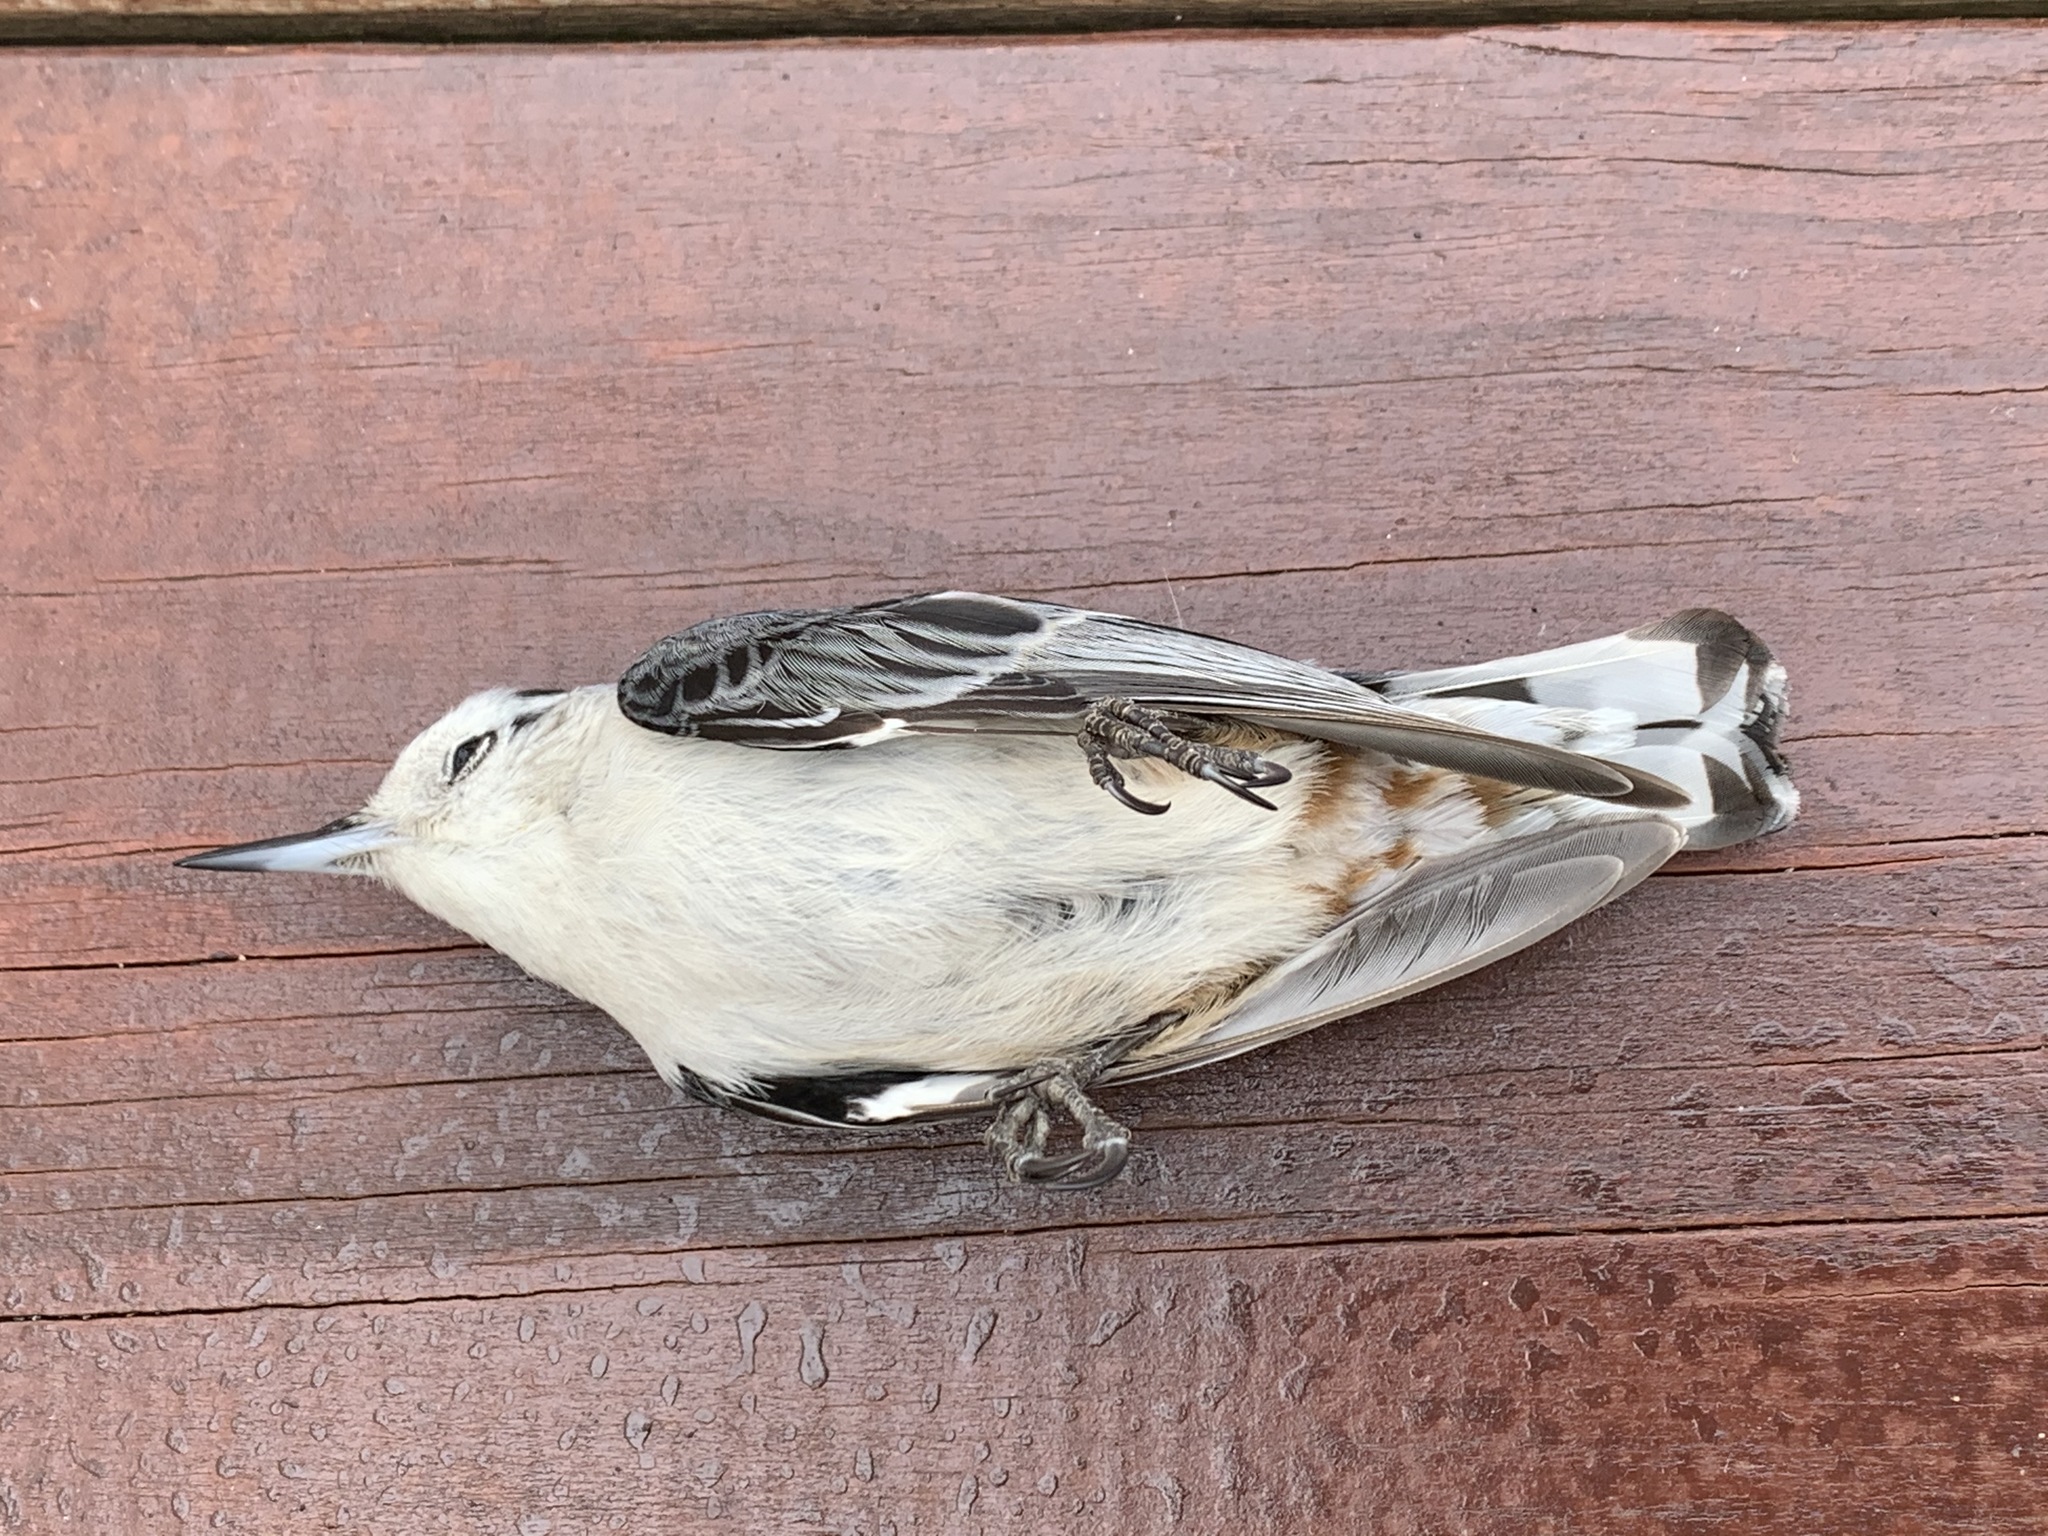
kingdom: Animalia
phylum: Chordata
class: Aves
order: Passeriformes
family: Sittidae
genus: Sitta
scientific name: Sitta carolinensis
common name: White-breasted nuthatch
